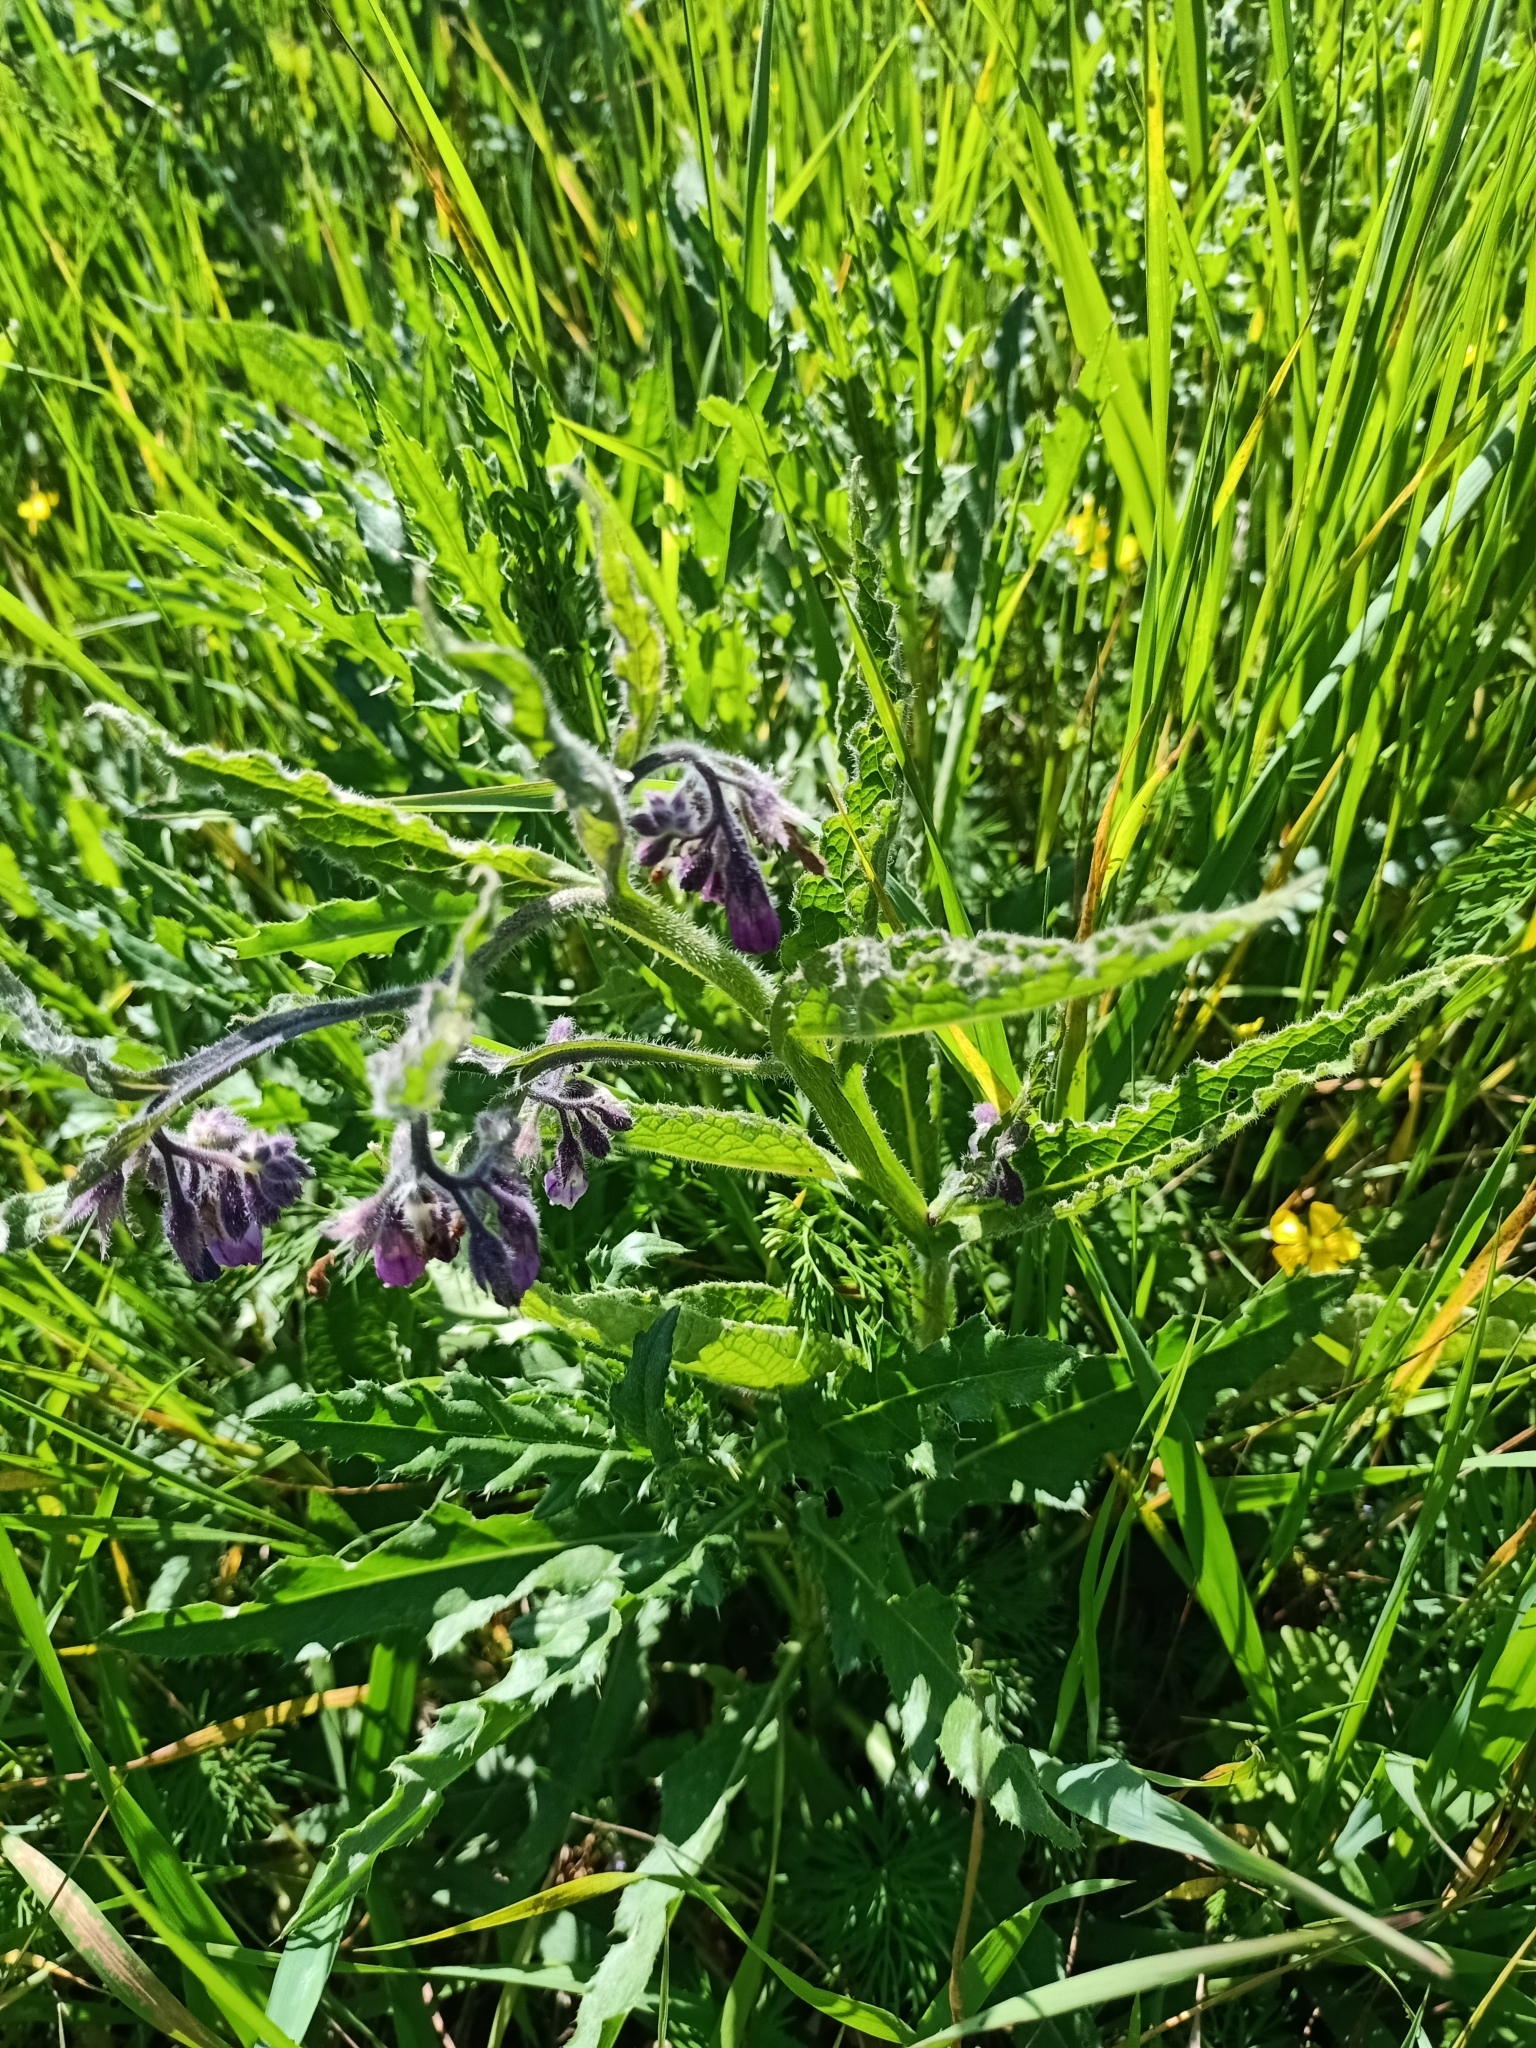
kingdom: Plantae
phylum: Tracheophyta
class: Magnoliopsida
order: Boraginales
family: Boraginaceae
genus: Symphytum
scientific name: Symphytum officinale
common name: Common comfrey
